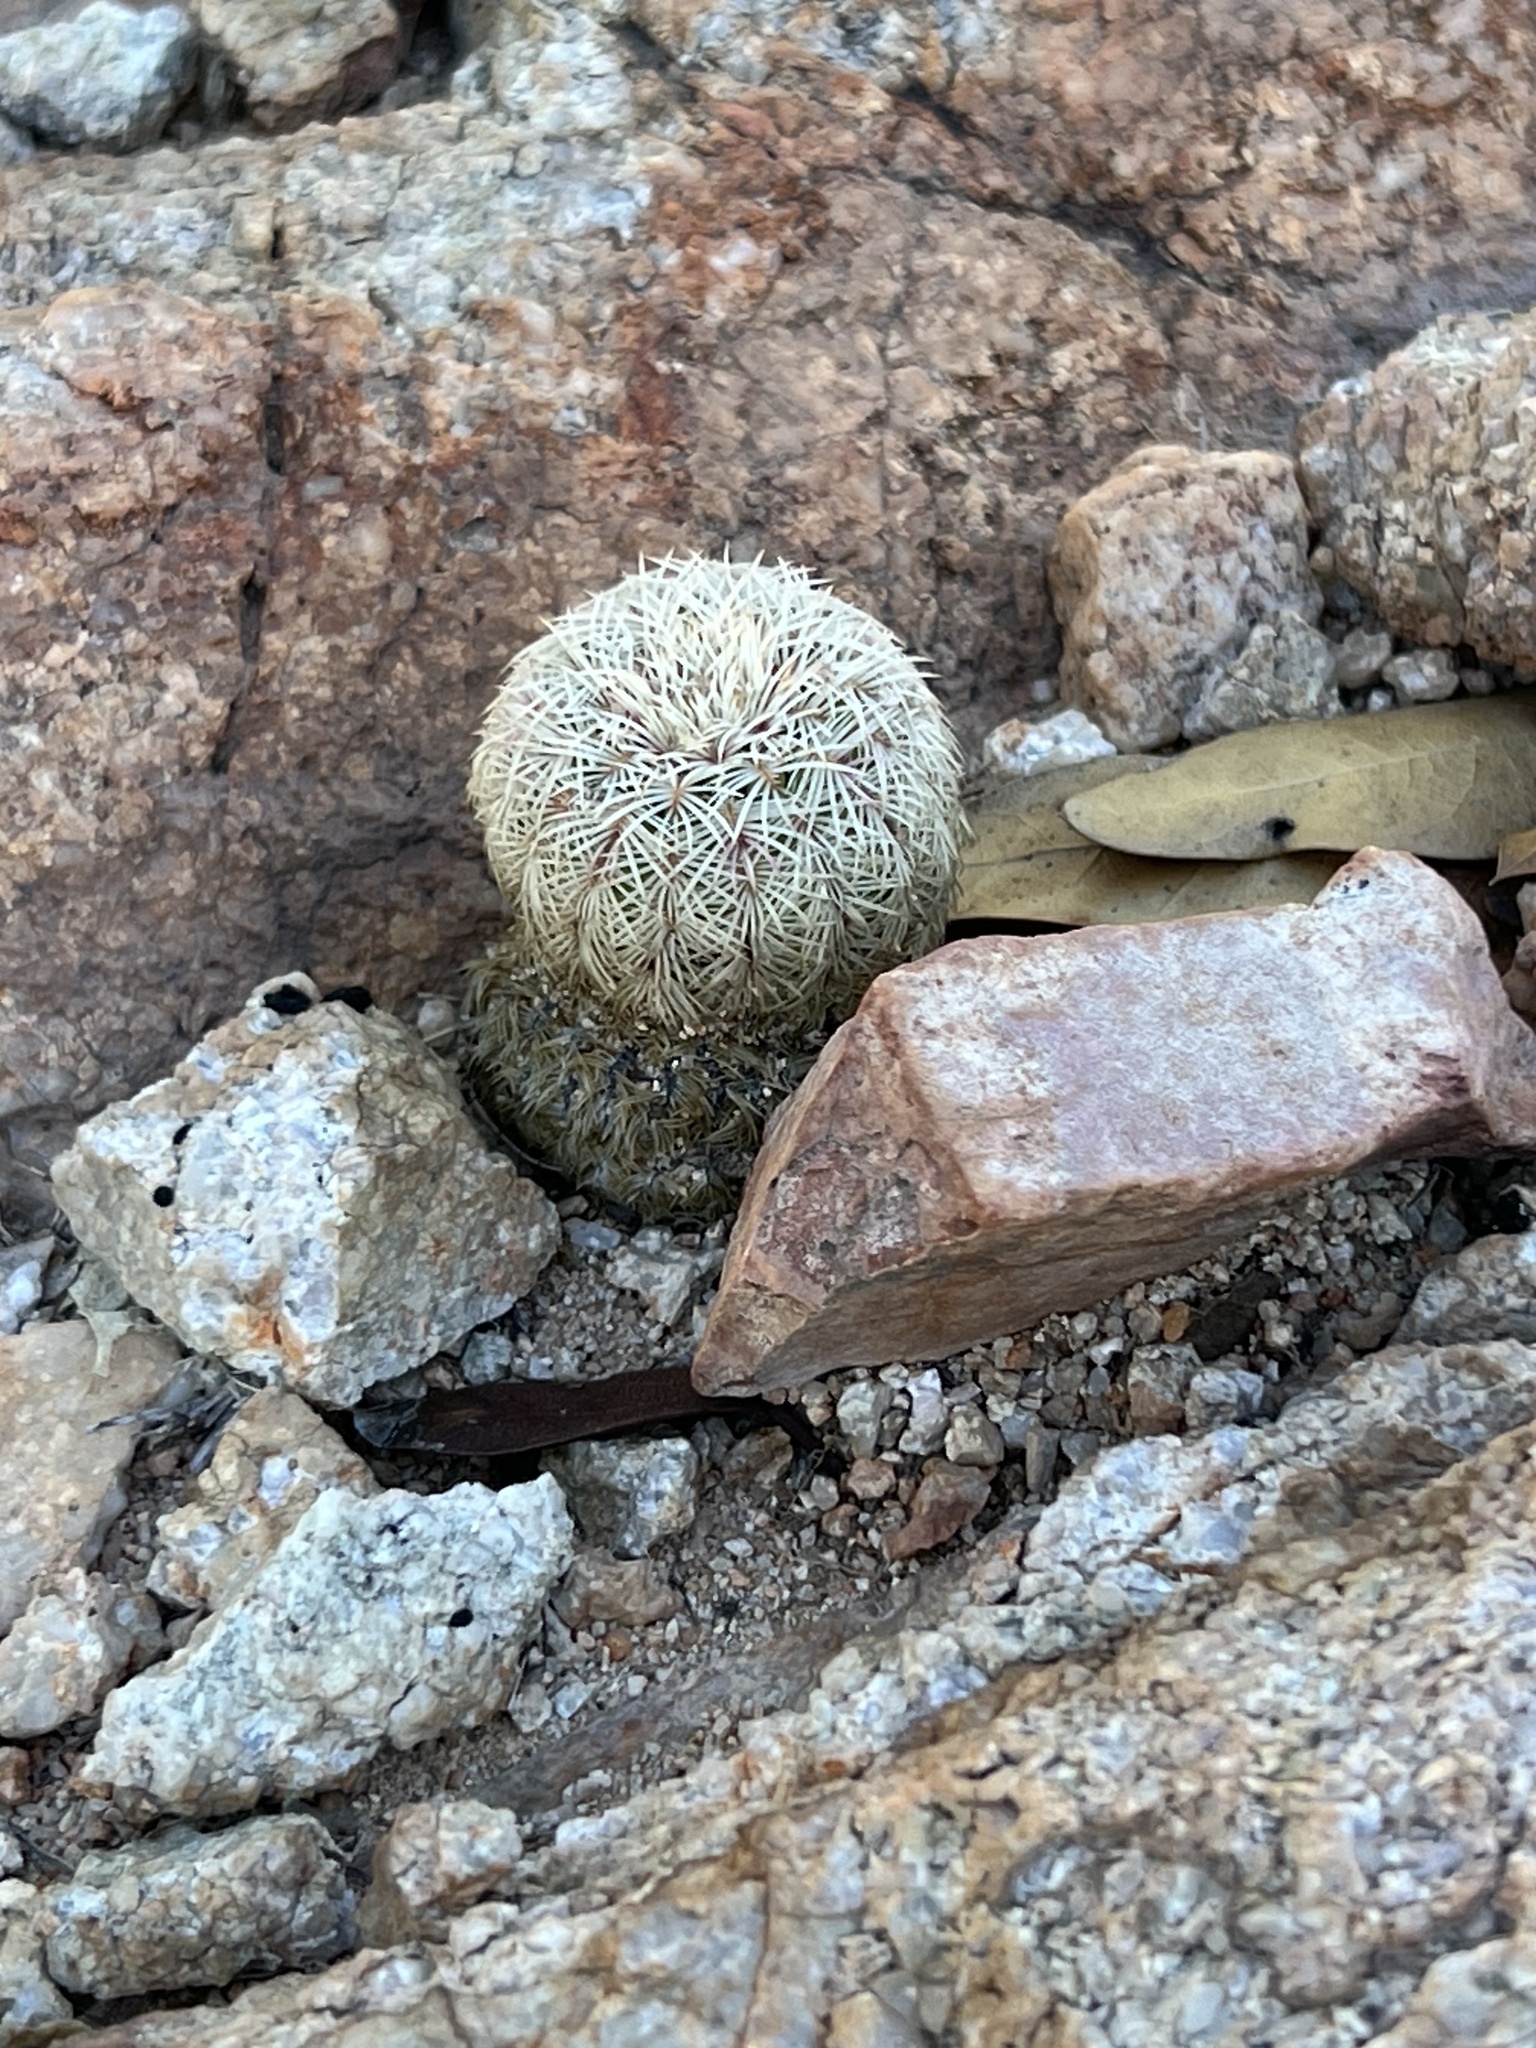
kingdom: Plantae
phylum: Tracheophyta
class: Magnoliopsida
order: Caryophyllales
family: Cactaceae
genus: Echinocereus
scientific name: Echinocereus rigidissimus
